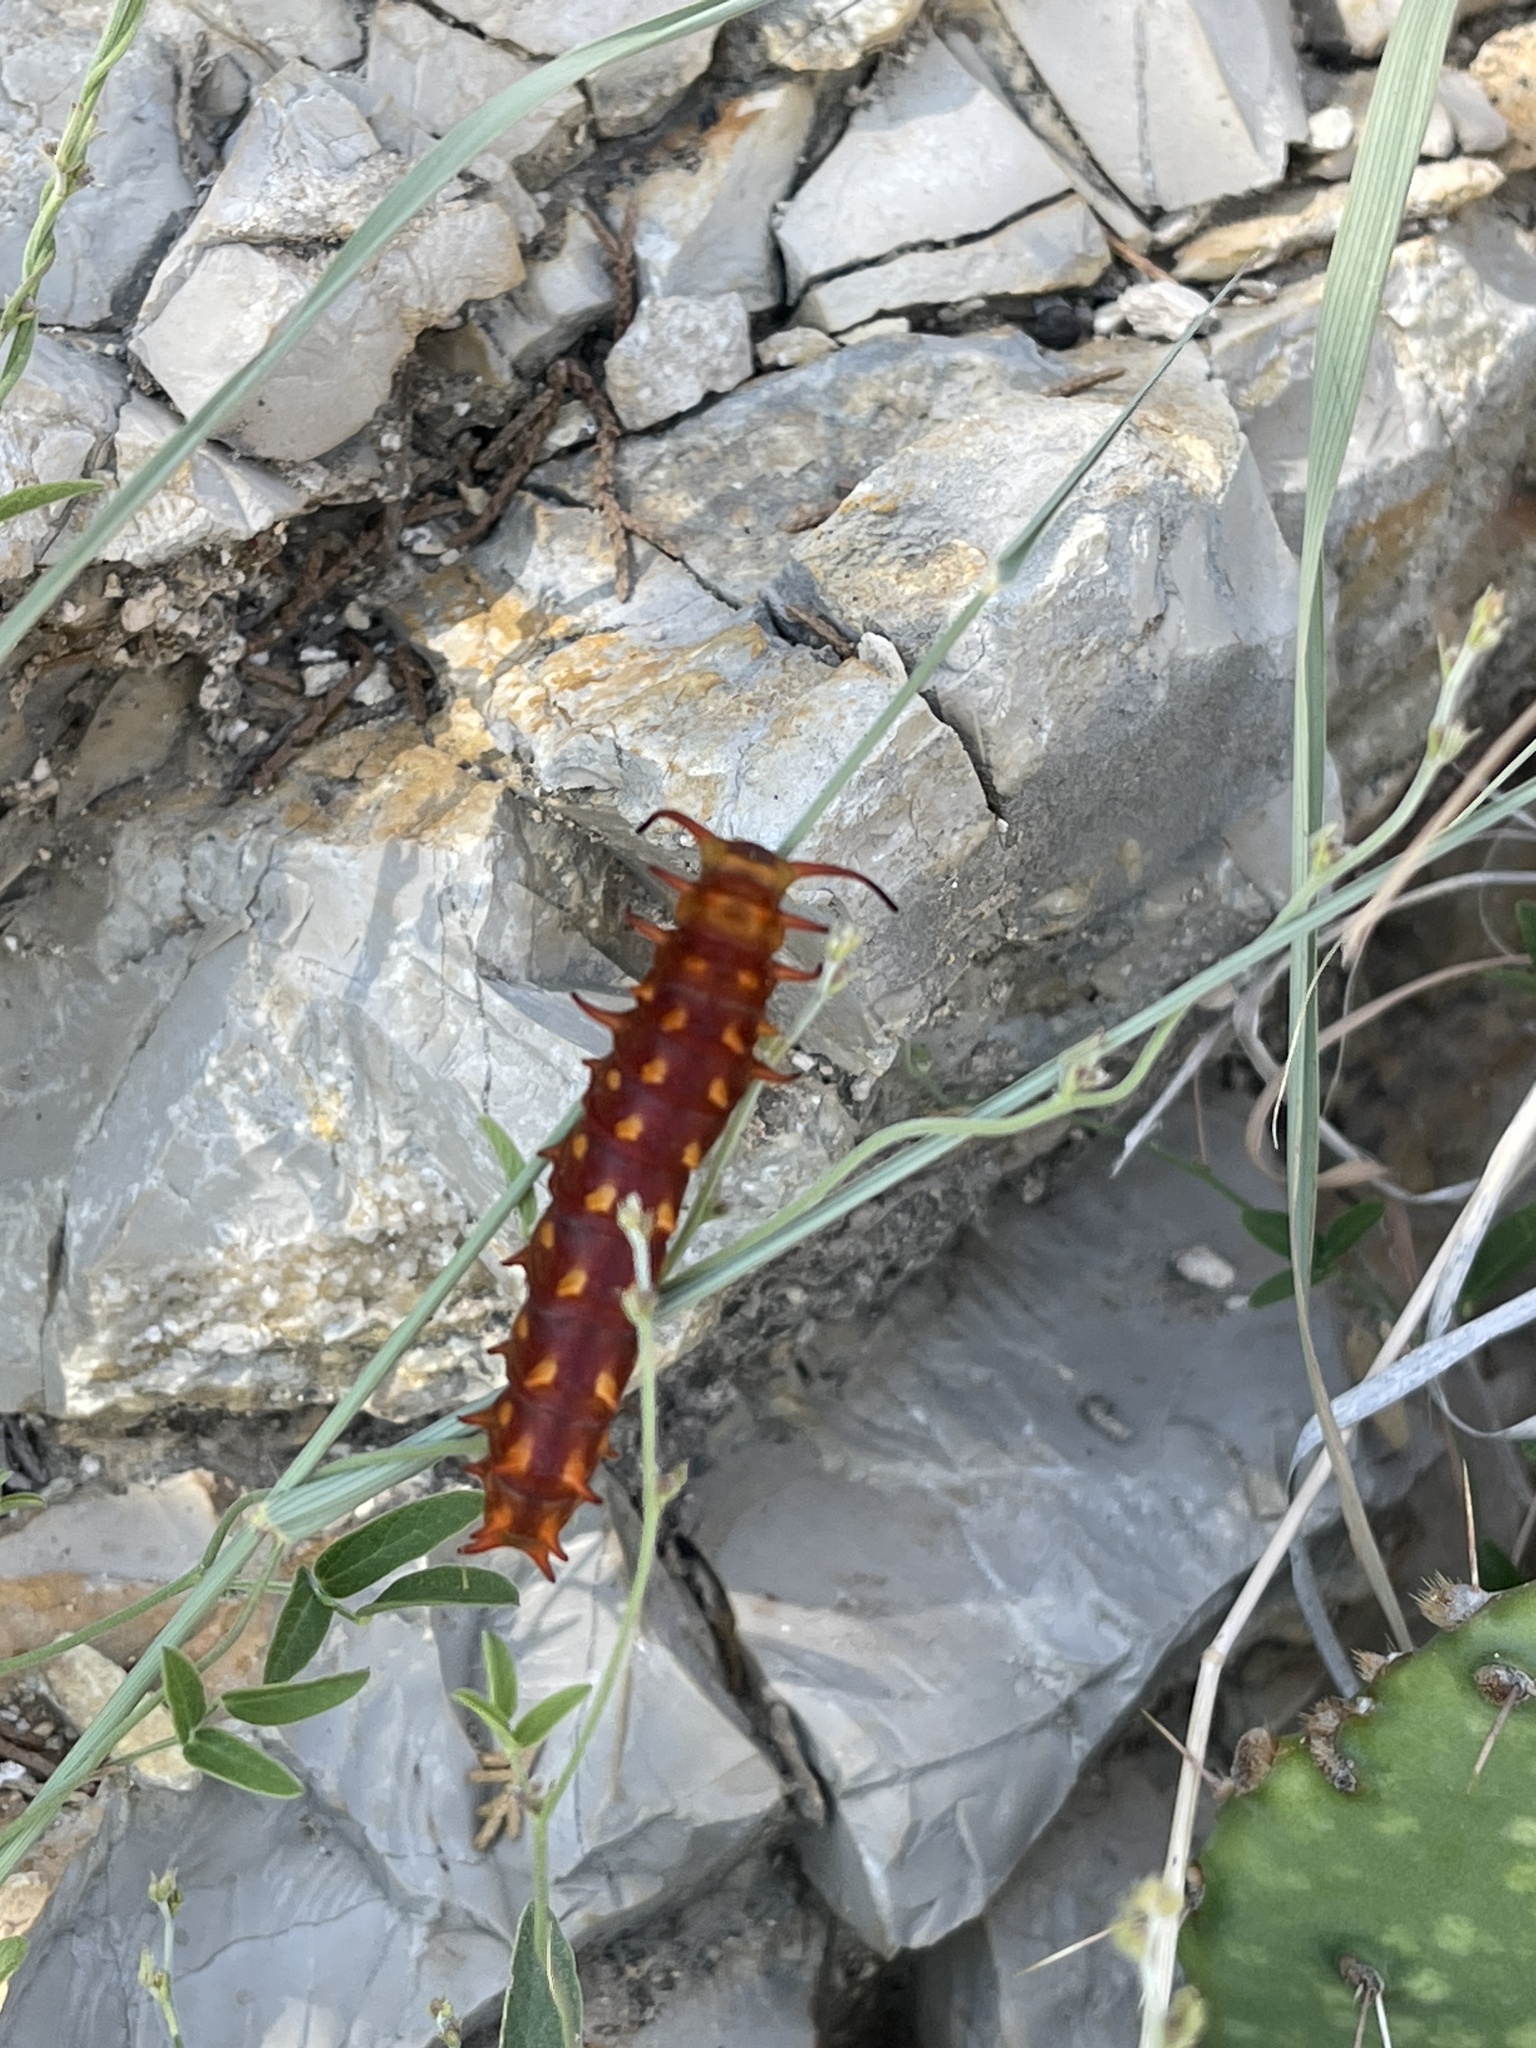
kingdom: Animalia
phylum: Arthropoda
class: Insecta
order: Lepidoptera
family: Papilionidae
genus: Battus
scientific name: Battus philenor
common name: Pipevine swallowtail
